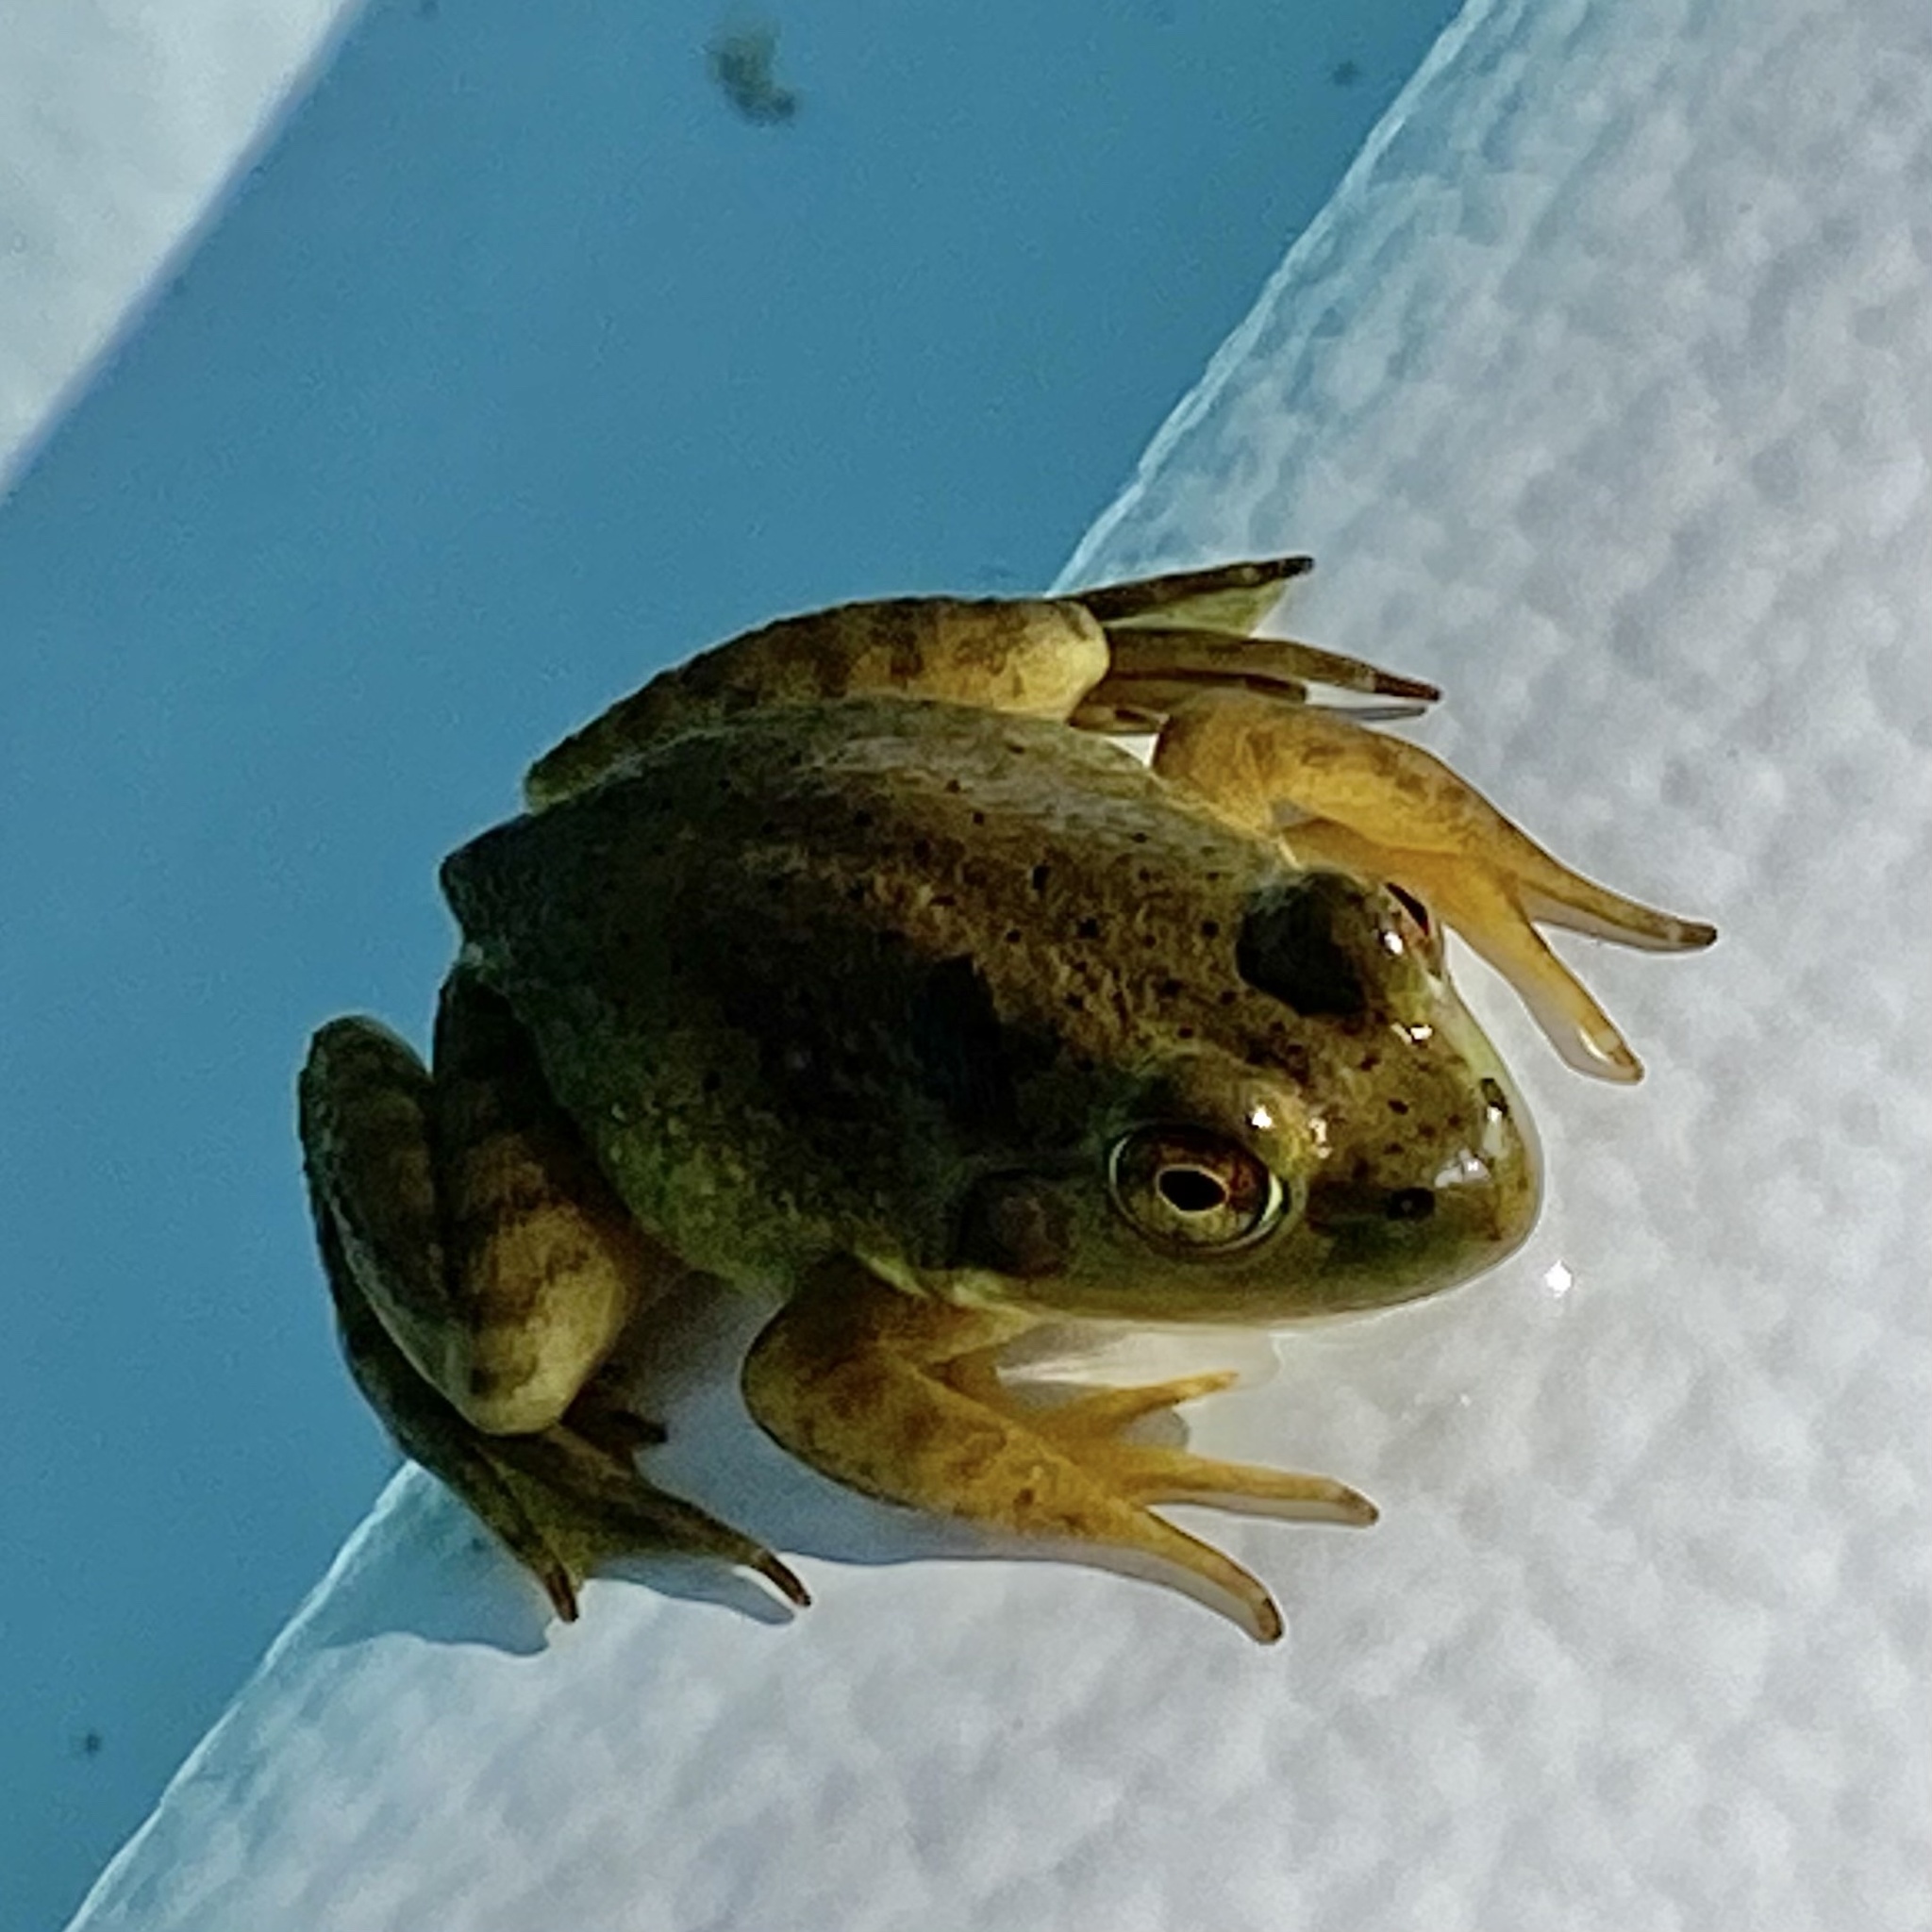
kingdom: Animalia
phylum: Chordata
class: Amphibia
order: Anura
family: Ranidae
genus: Lithobates
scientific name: Lithobates catesbeianus
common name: American bullfrog
